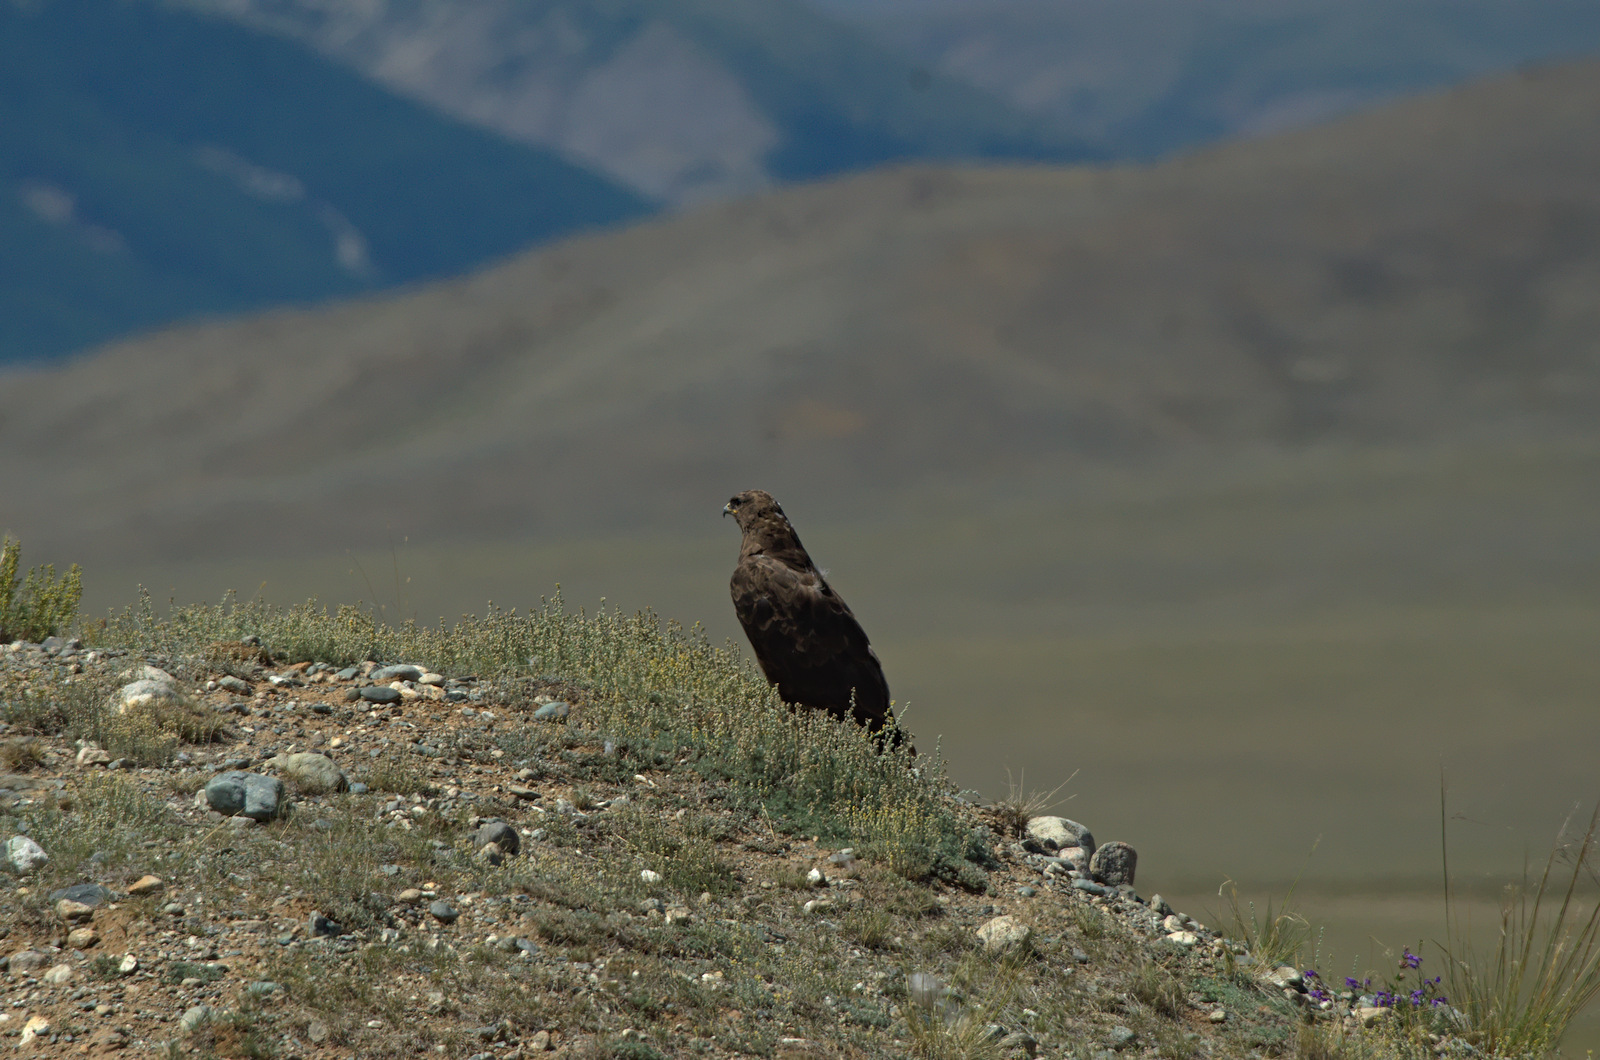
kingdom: Animalia
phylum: Chordata
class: Aves
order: Accipitriformes
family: Accipitridae
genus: Buteo
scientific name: Buteo hemilasius
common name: Upland buzzard
